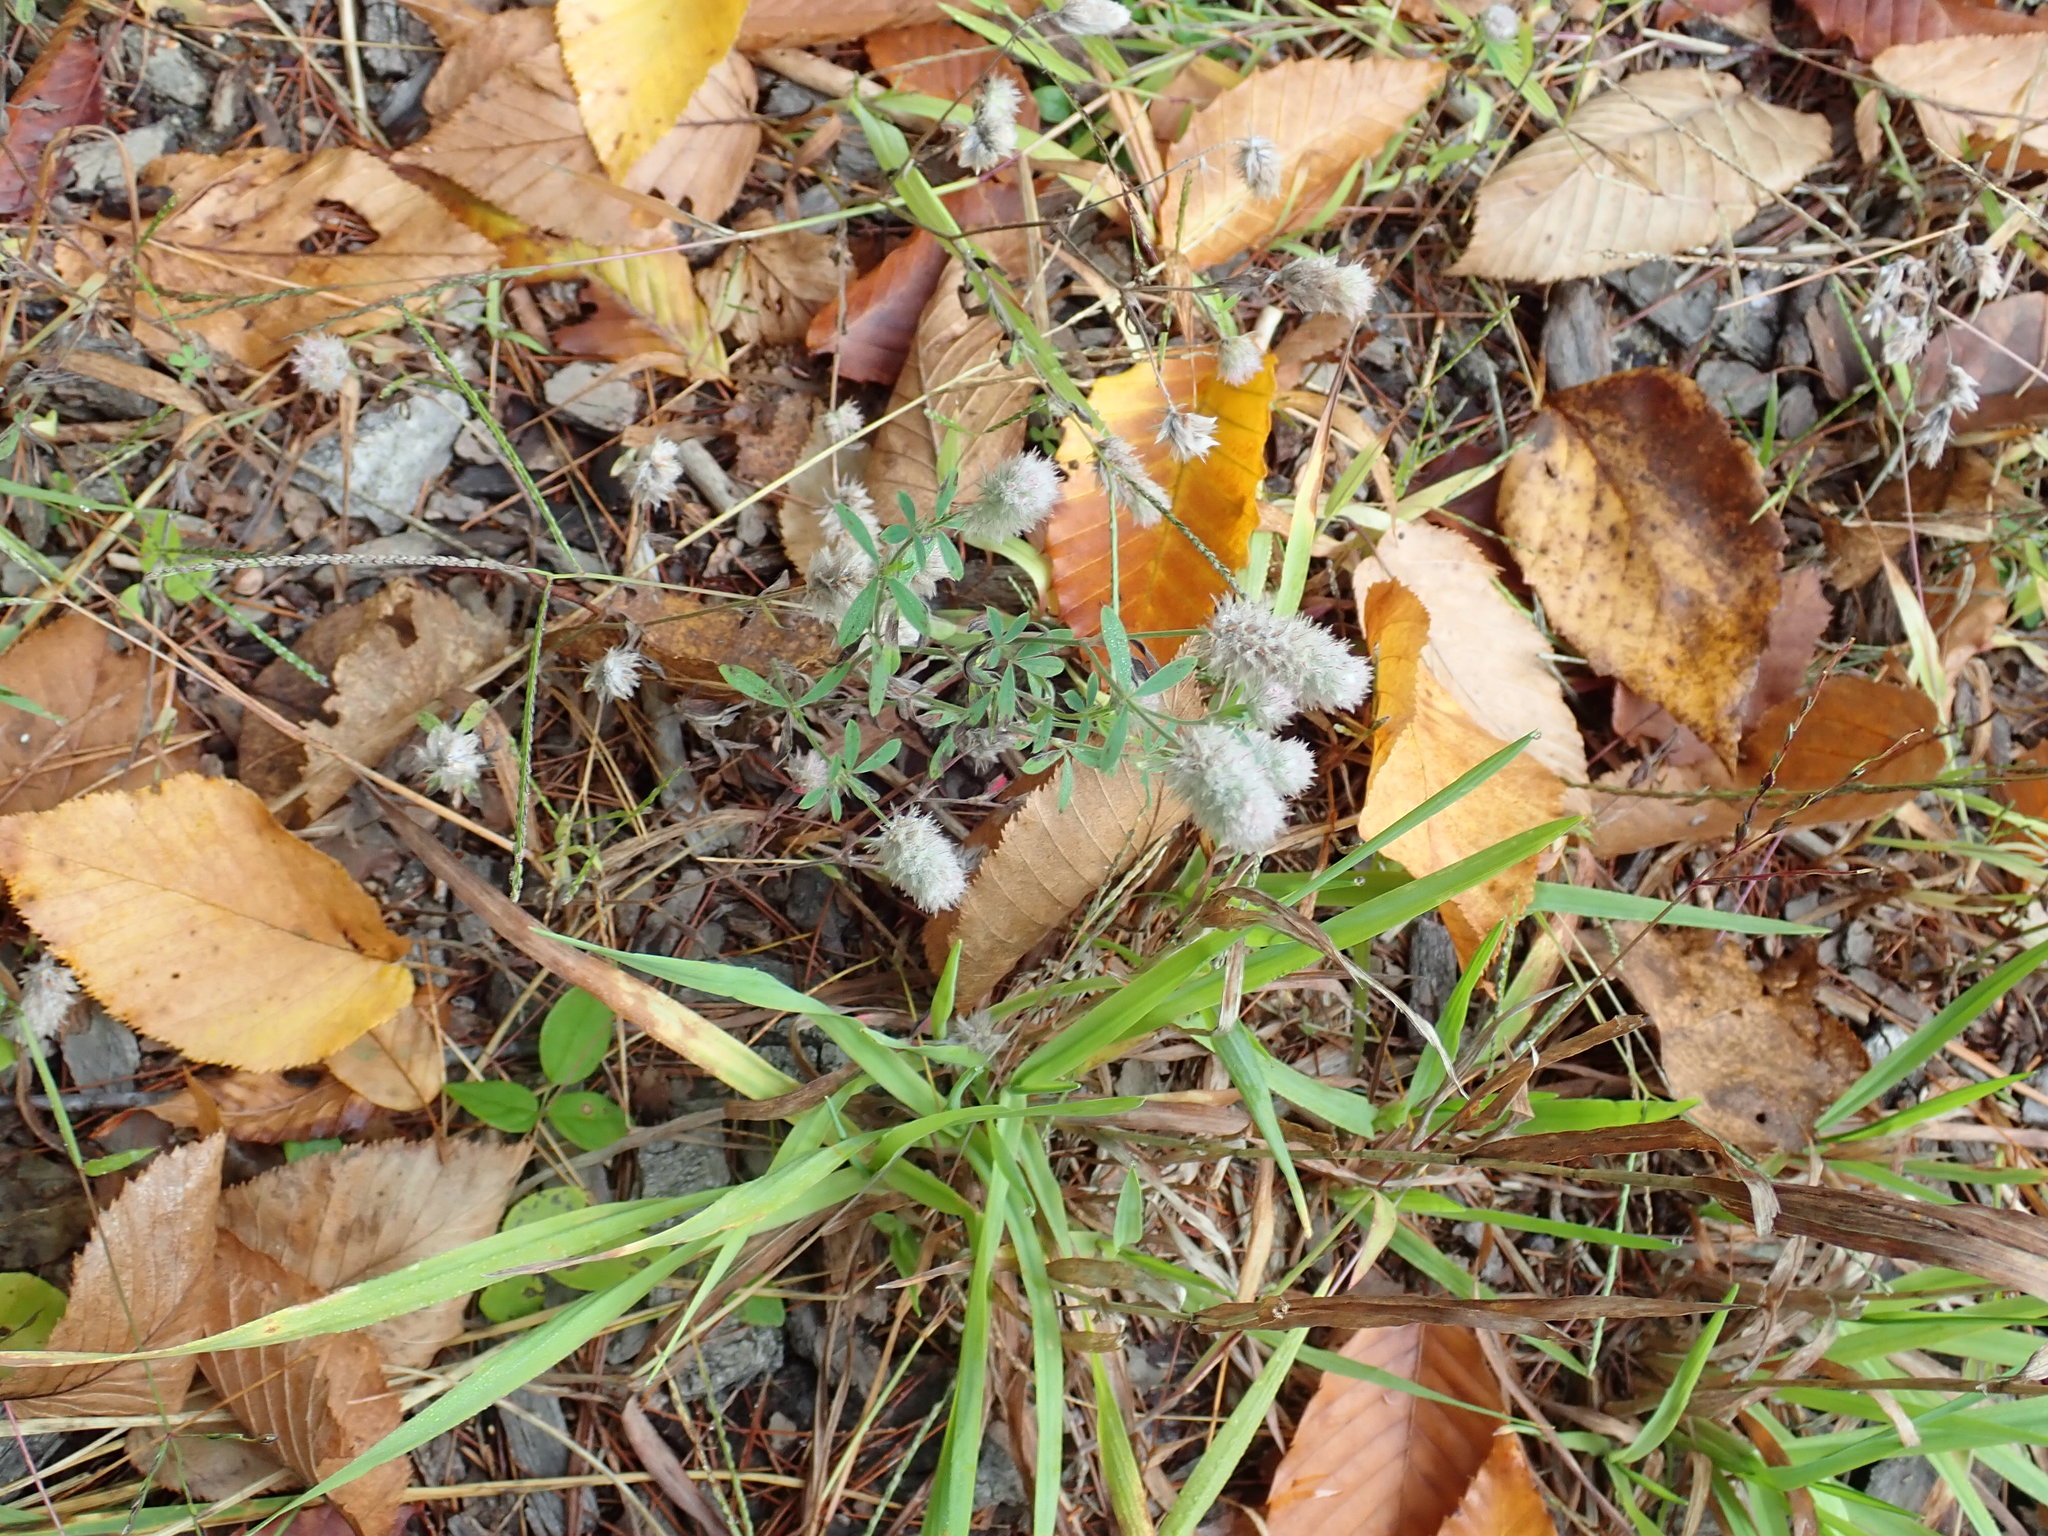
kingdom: Plantae
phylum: Tracheophyta
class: Magnoliopsida
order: Fabales
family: Fabaceae
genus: Trifolium
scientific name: Trifolium arvense
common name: Hare's-foot clover
